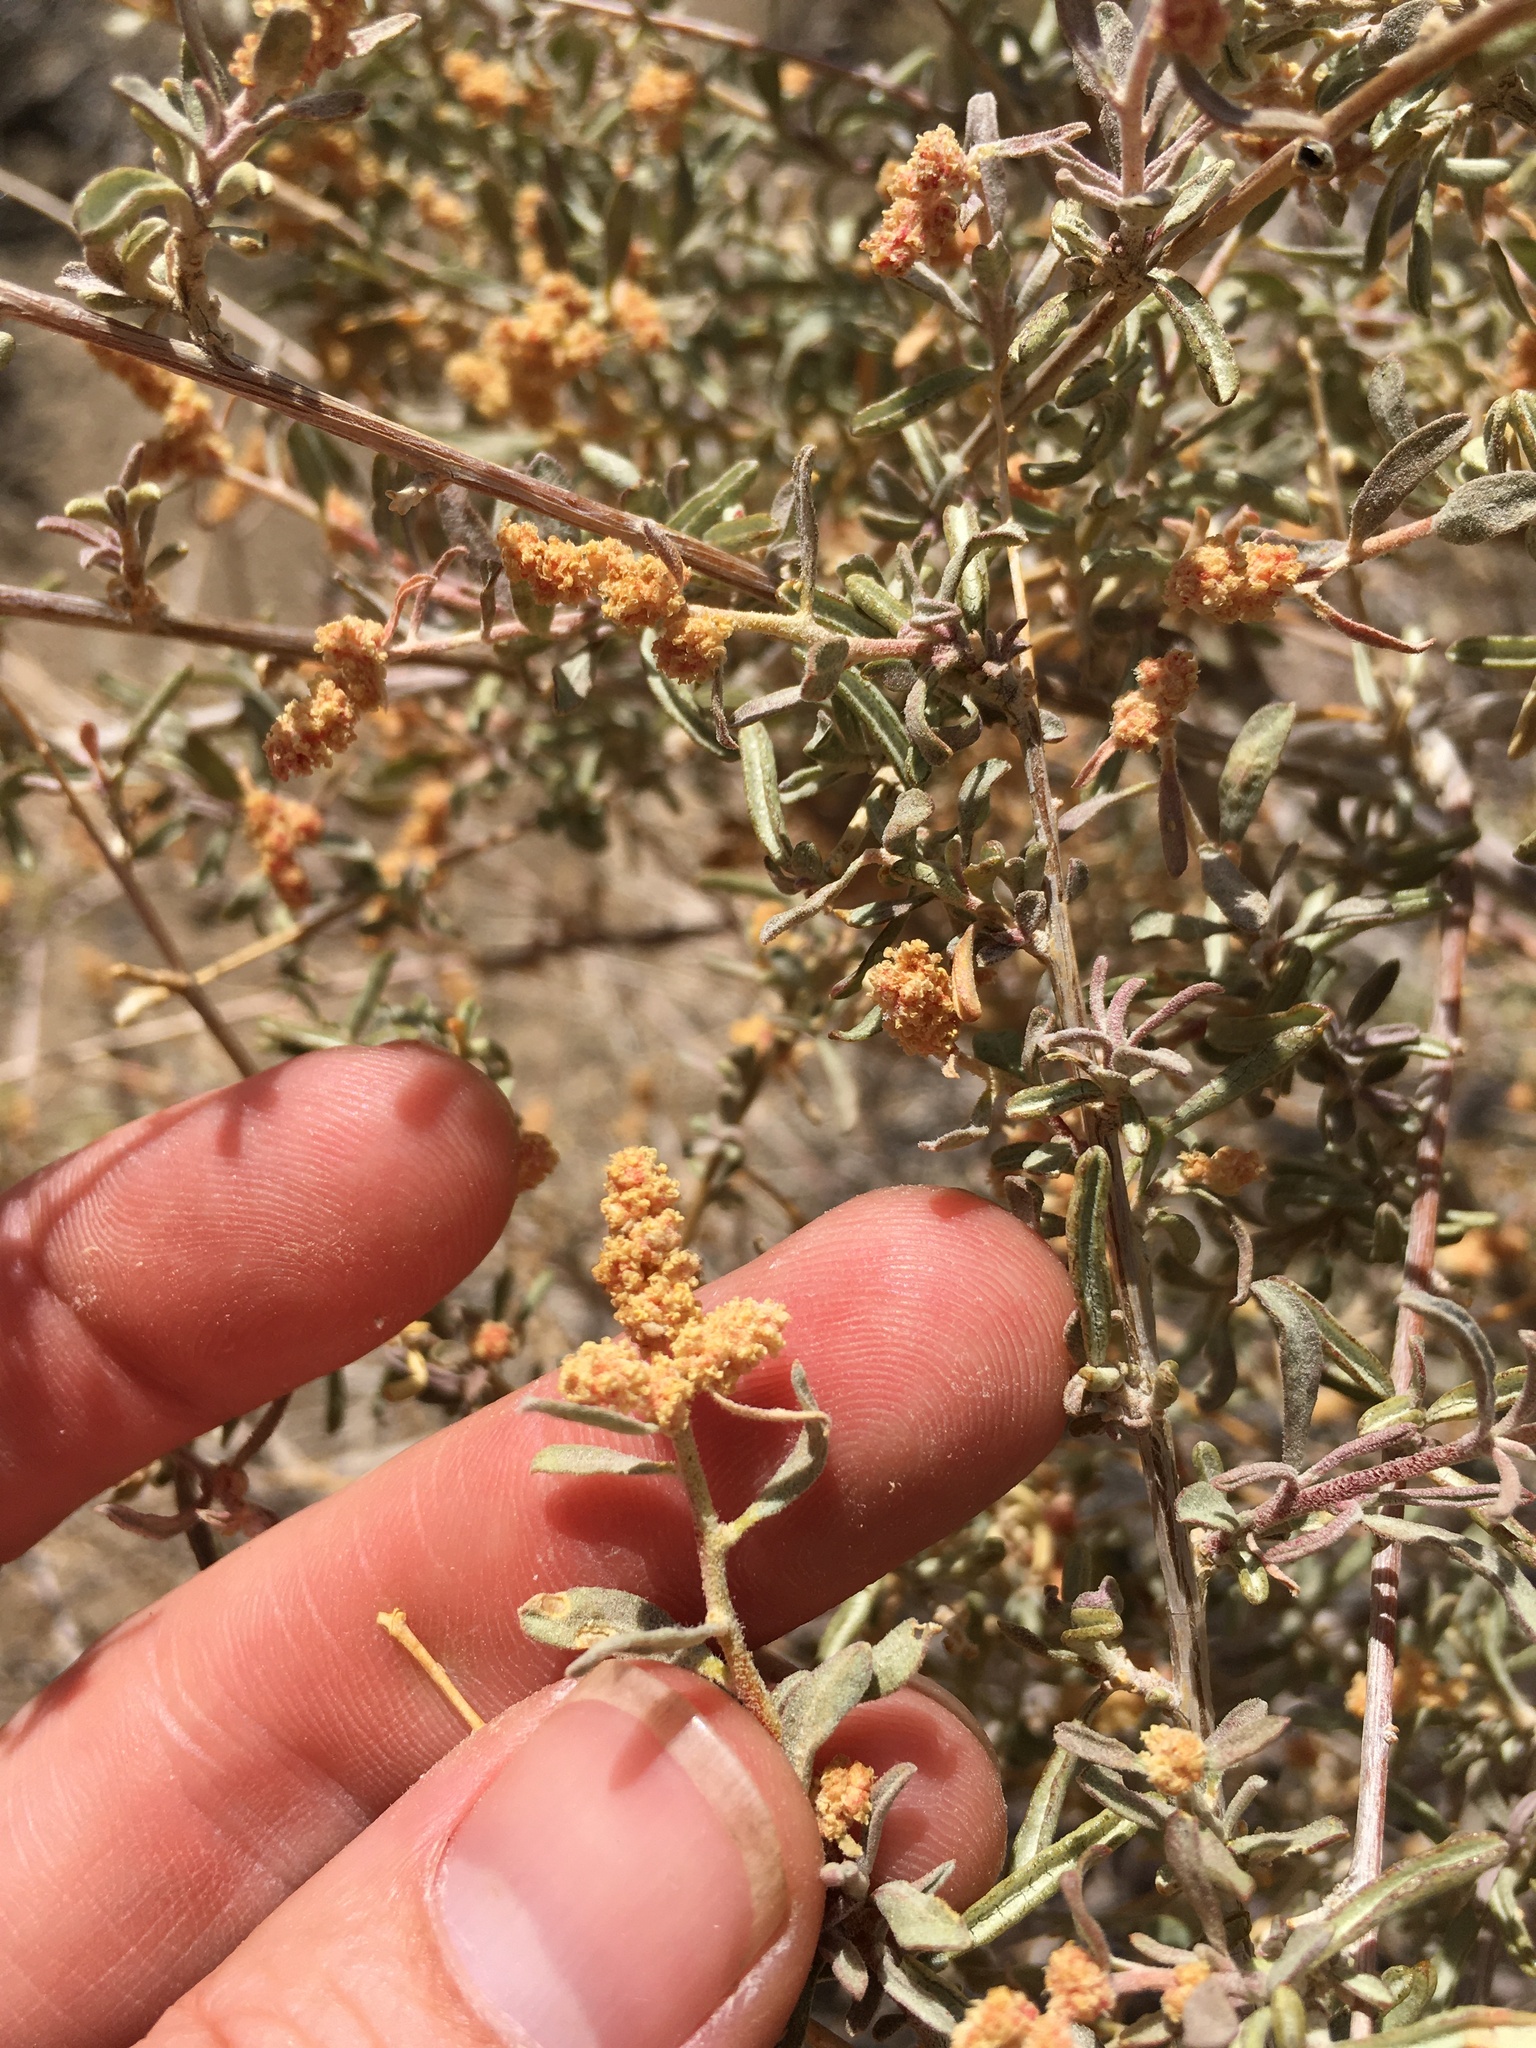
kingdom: Plantae
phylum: Tracheophyta
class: Magnoliopsida
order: Caryophyllales
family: Amaranthaceae
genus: Atriplex
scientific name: Atriplex canescens
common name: Four-wing saltbush
